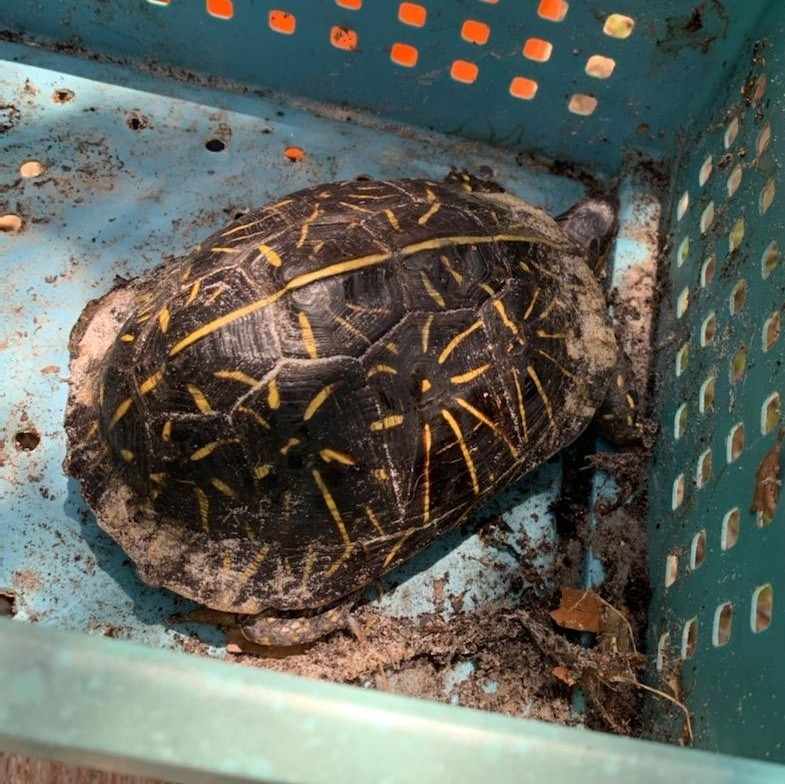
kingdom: Animalia
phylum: Chordata
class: Testudines
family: Emydidae
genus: Terrapene
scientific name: Terrapene carolina
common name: Common box turtle
